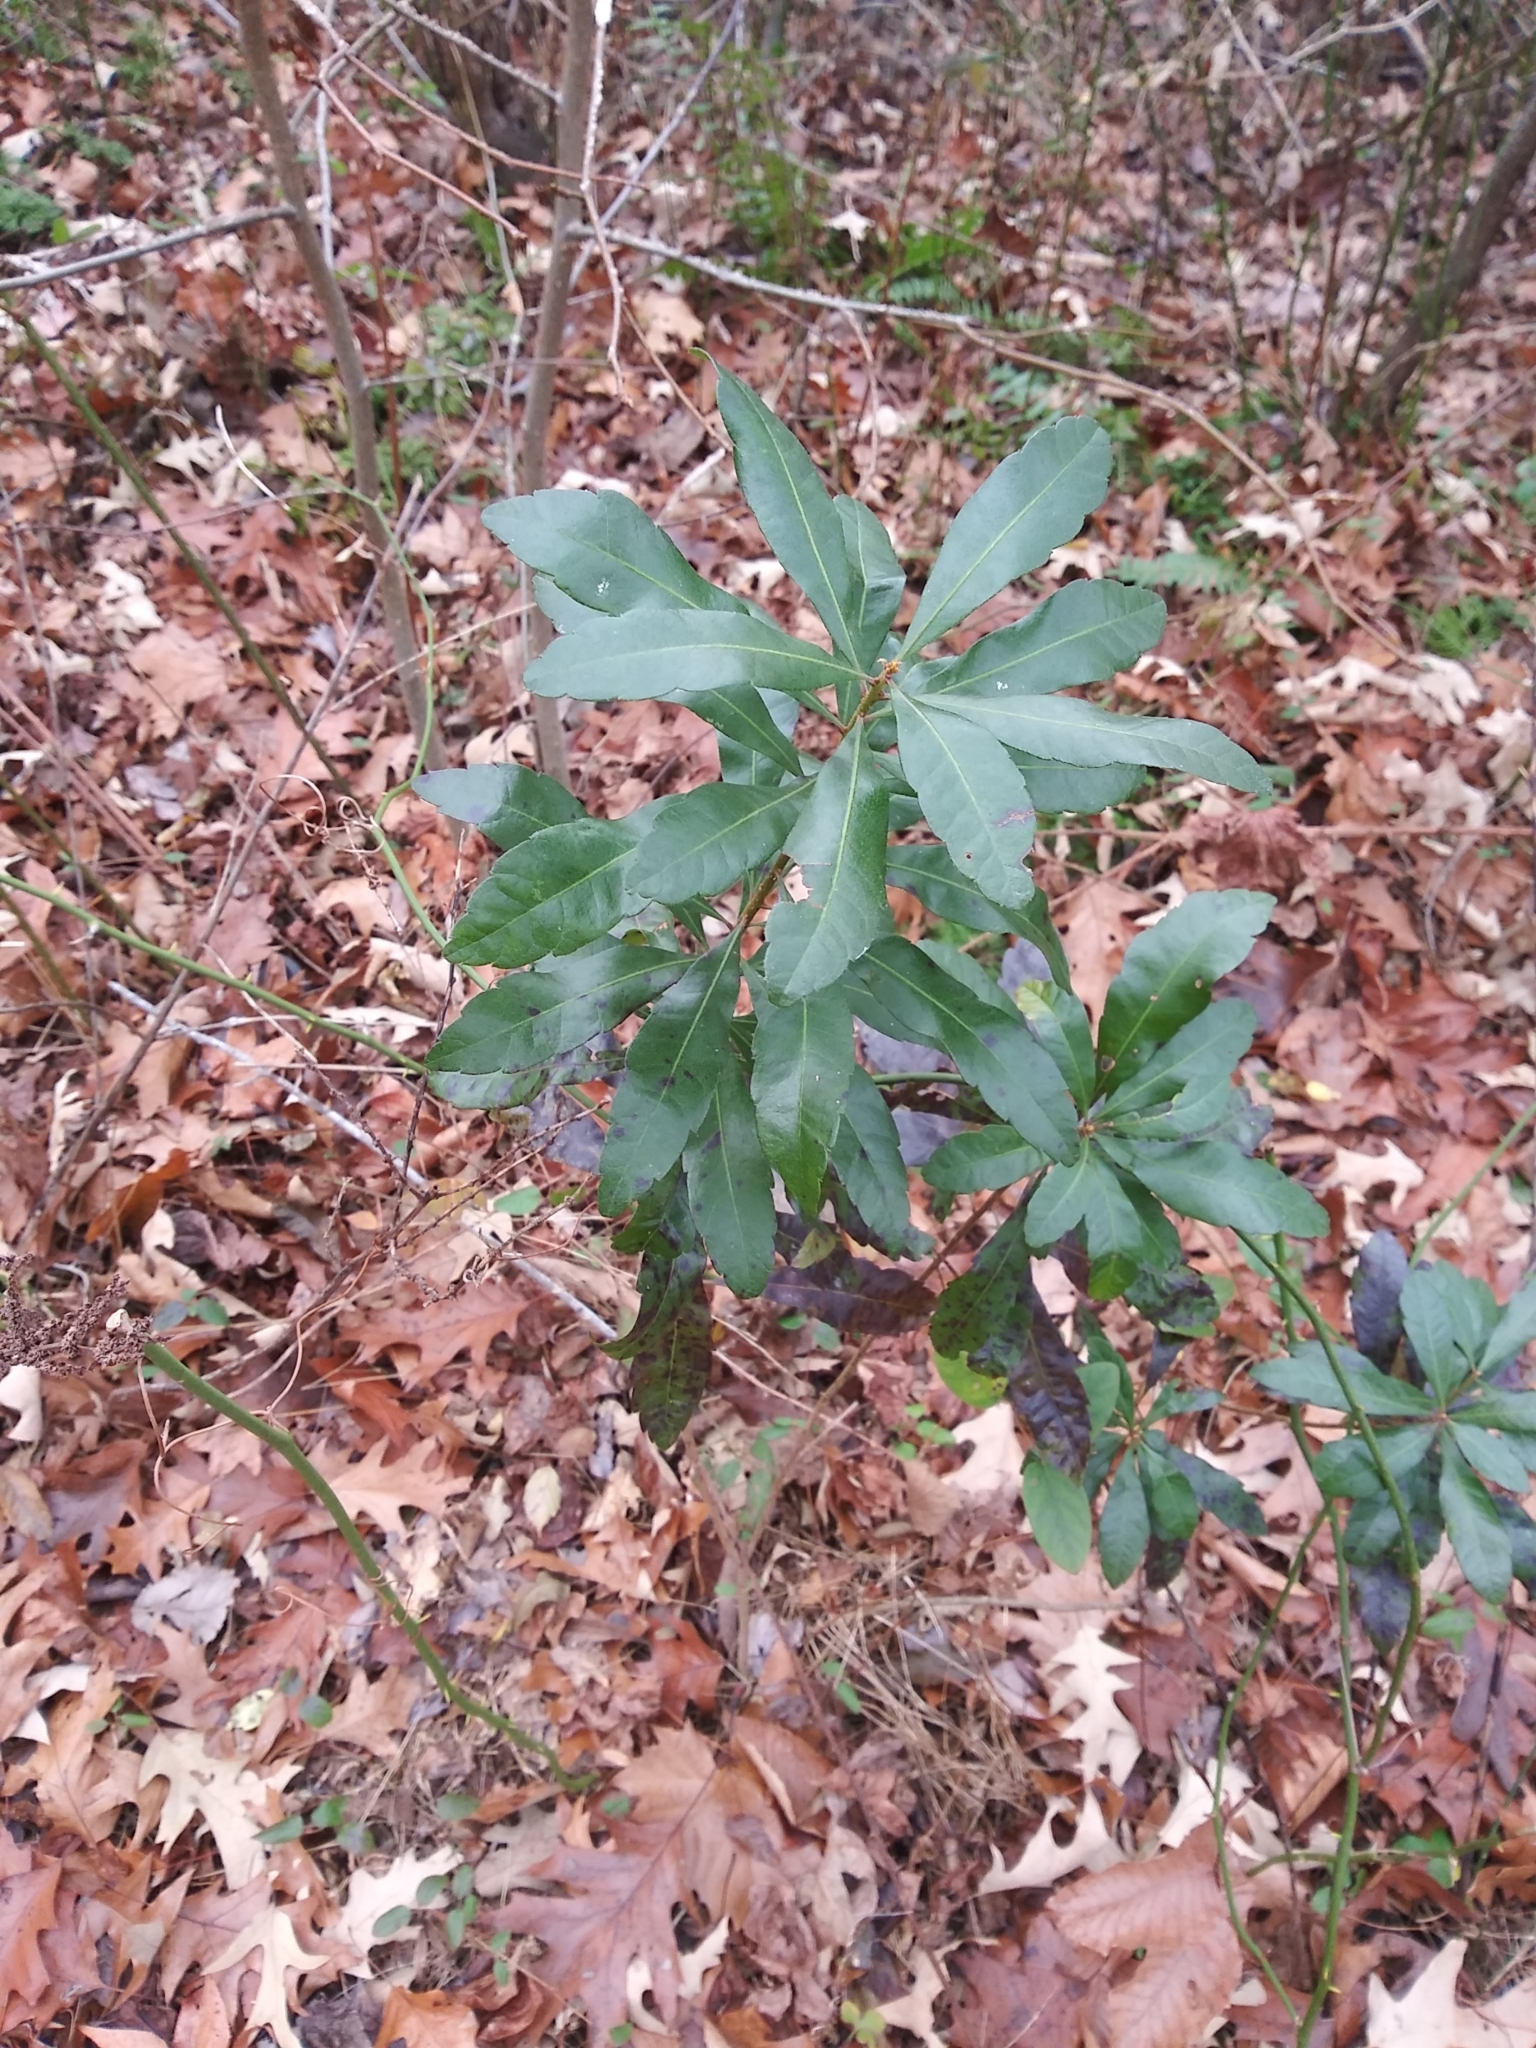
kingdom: Plantae
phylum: Tracheophyta
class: Magnoliopsida
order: Fagales
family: Myricaceae
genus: Morella
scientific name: Morella cerifera
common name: Wax myrtle
